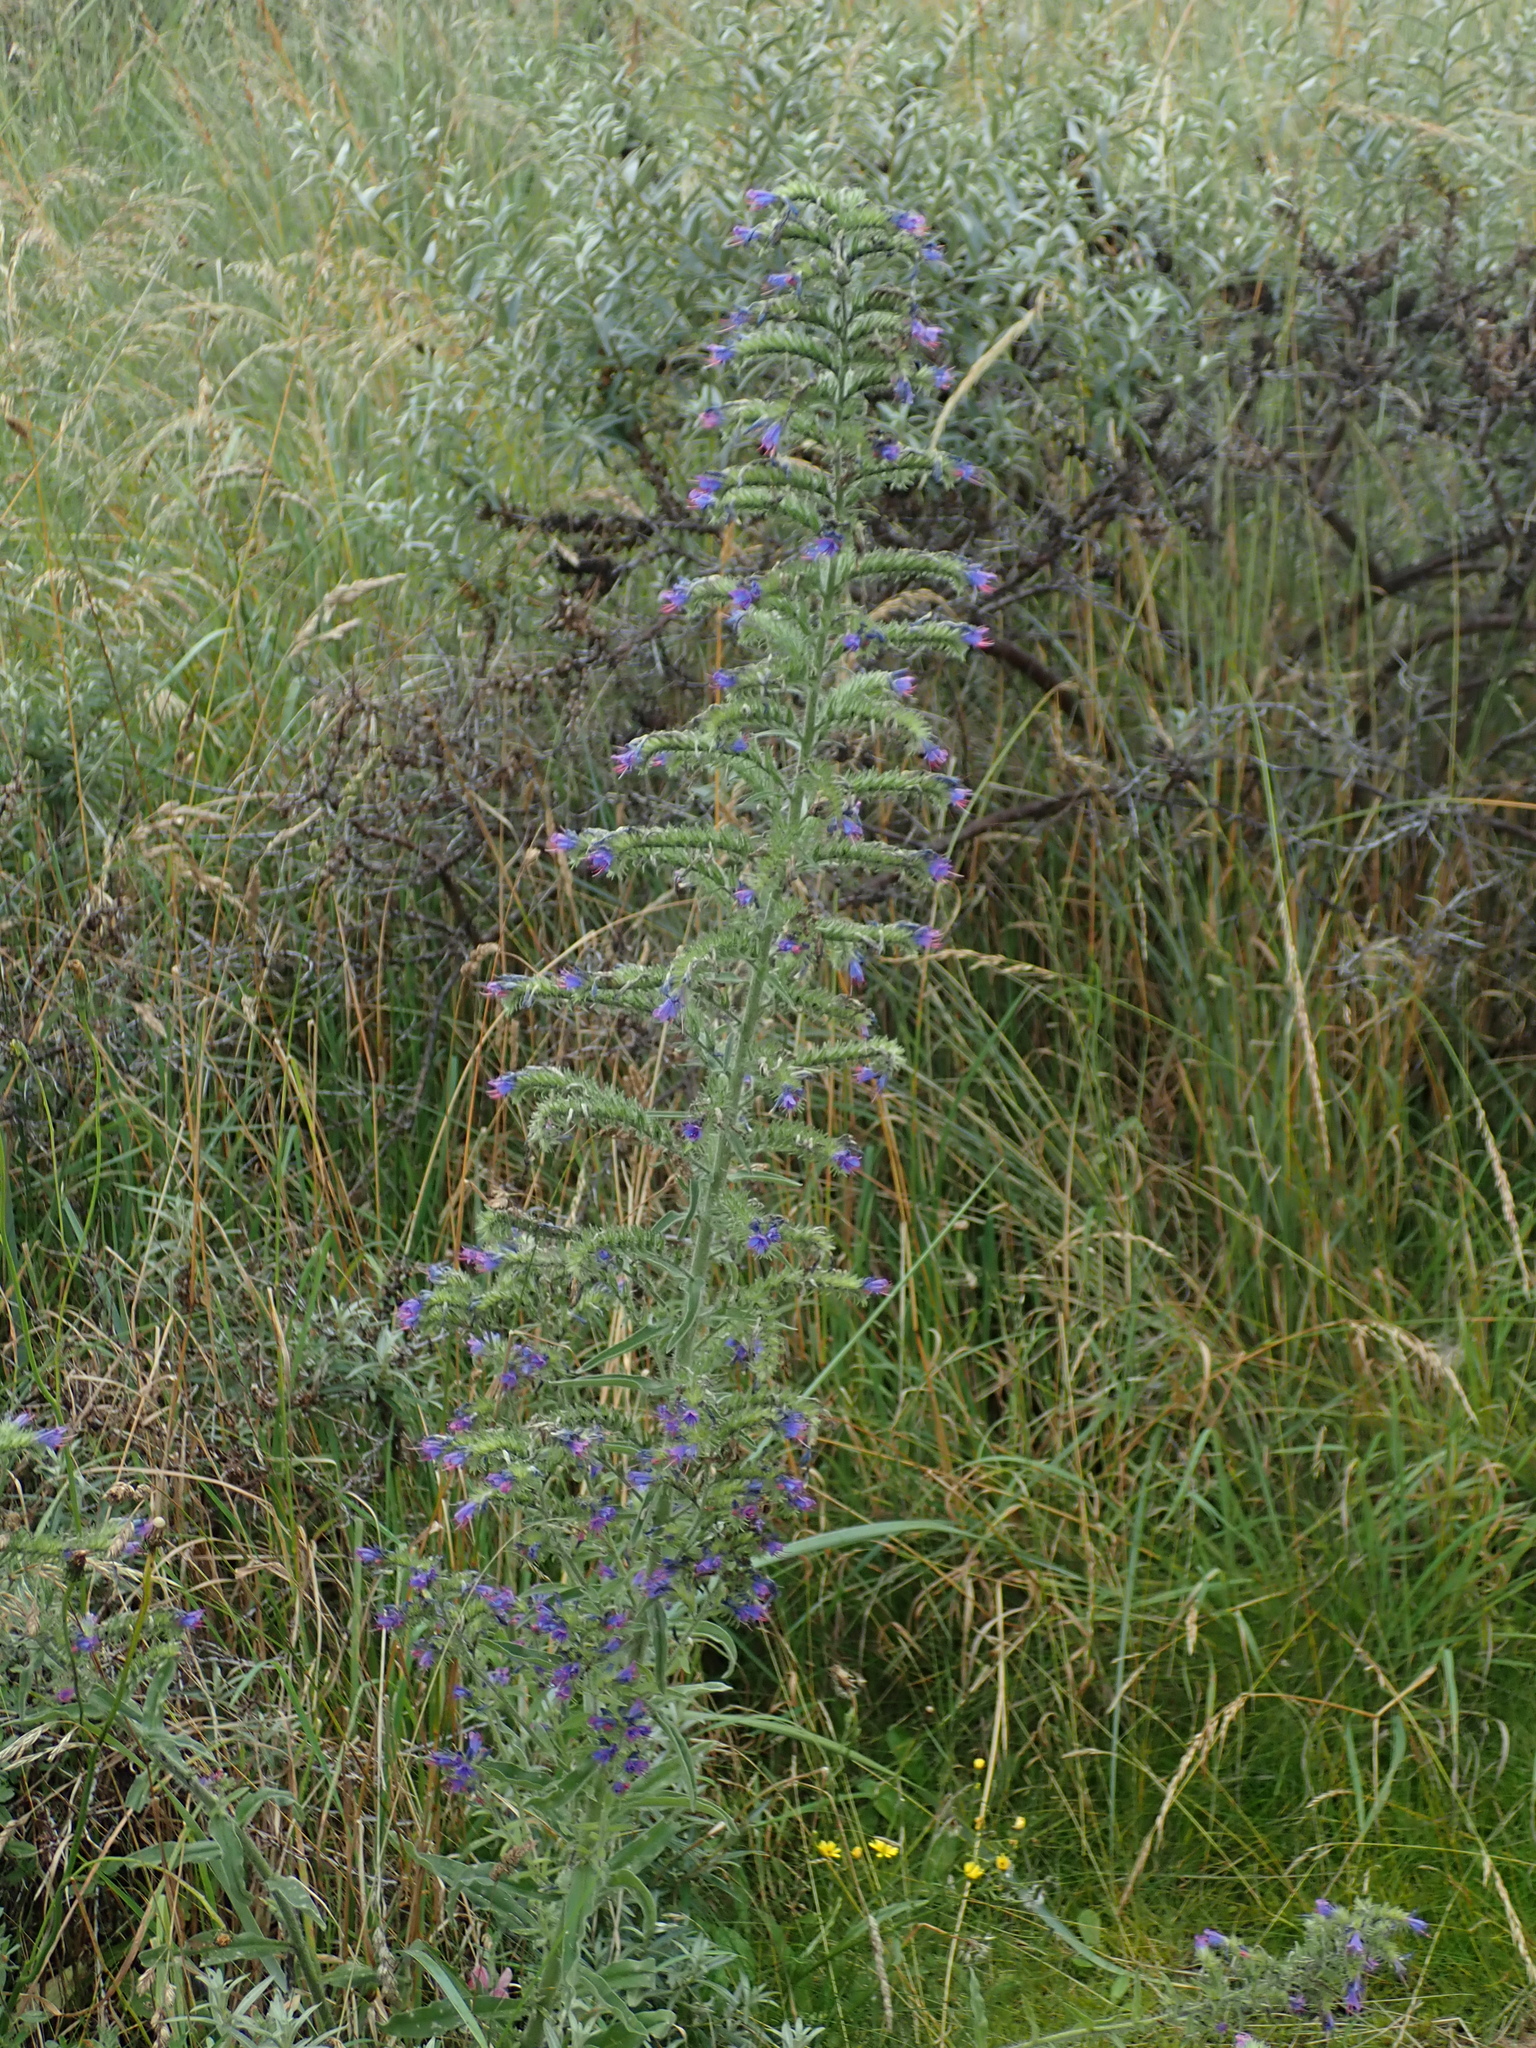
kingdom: Plantae
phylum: Tracheophyta
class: Magnoliopsida
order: Boraginales
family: Boraginaceae
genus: Echium
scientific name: Echium vulgare
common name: Common viper's bugloss
